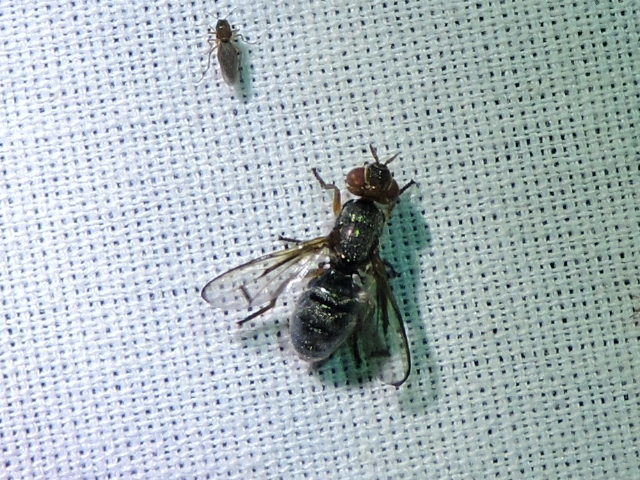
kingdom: Animalia
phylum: Arthropoda
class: Insecta
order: Diptera
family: Platystomatidae
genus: Senopterina
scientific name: Senopterina caerulescens
